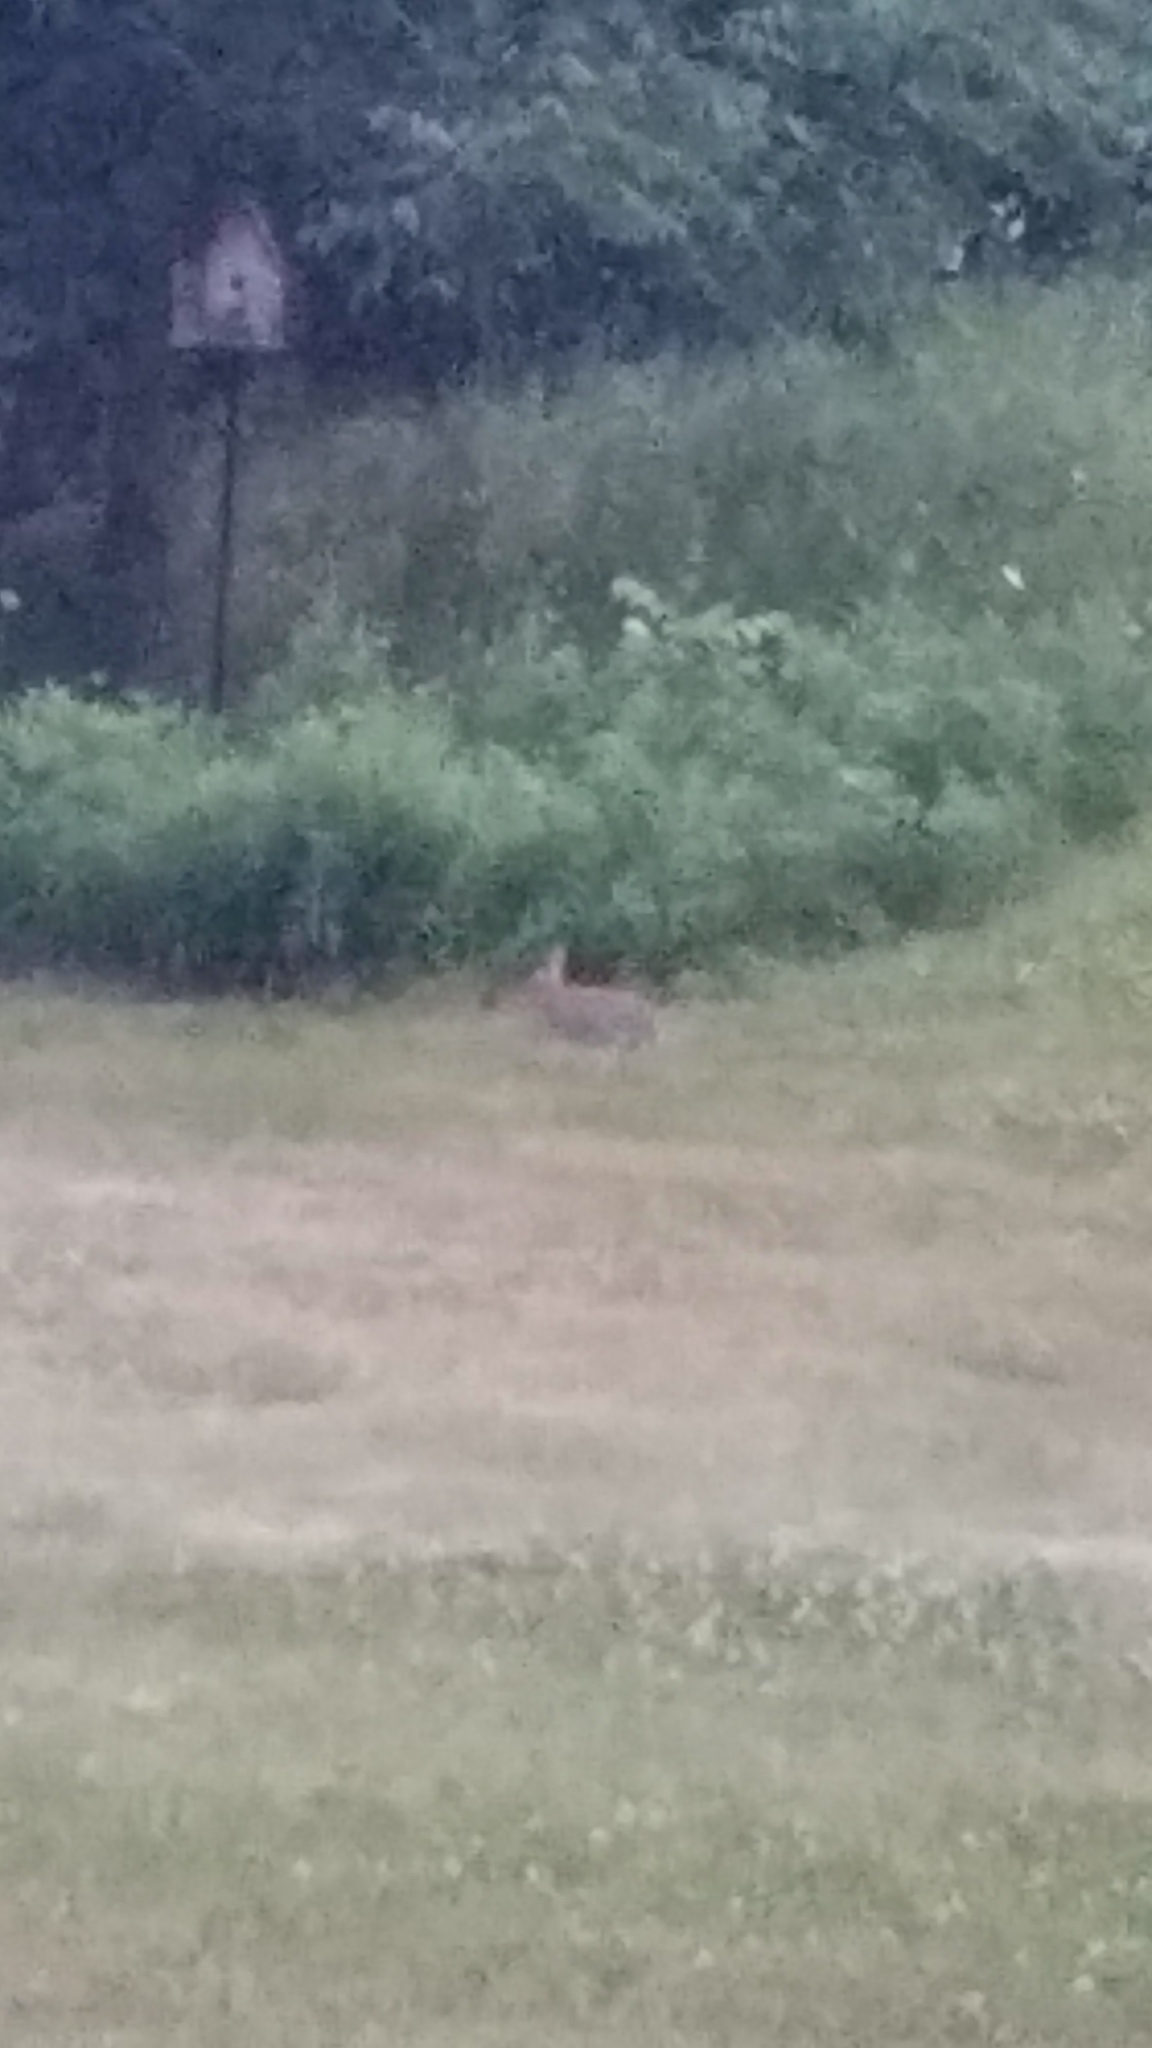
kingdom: Animalia
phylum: Chordata
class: Mammalia
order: Lagomorpha
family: Leporidae
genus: Sylvilagus
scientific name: Sylvilagus floridanus
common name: Eastern cottontail
